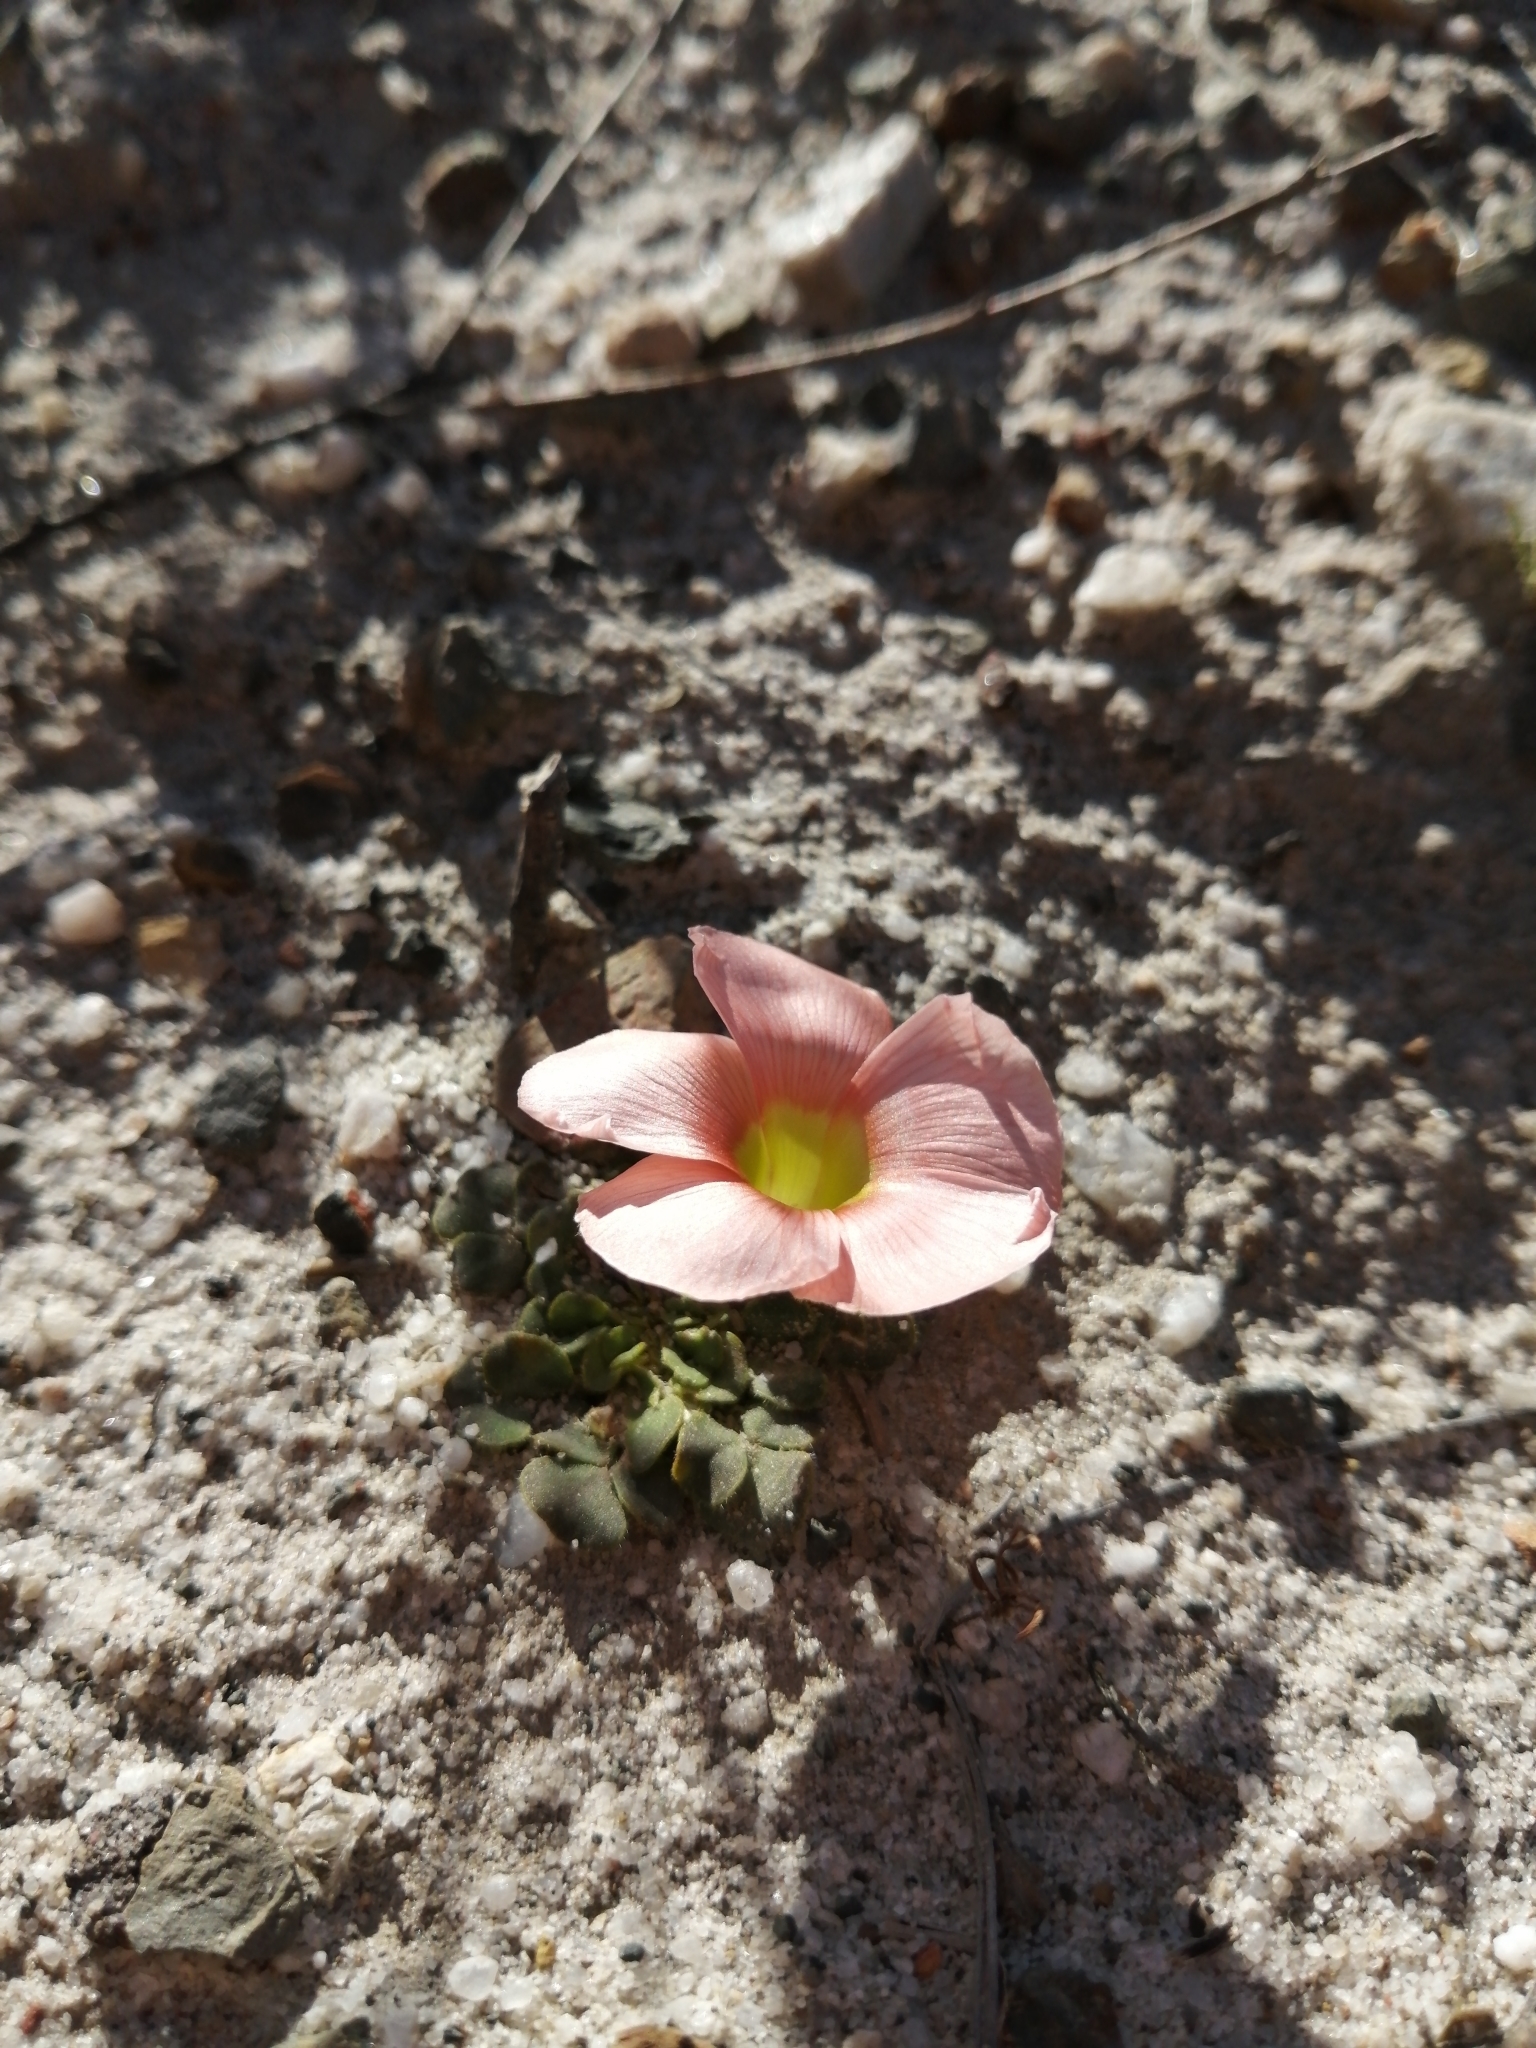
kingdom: Plantae
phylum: Tracheophyta
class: Magnoliopsida
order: Oxalidales
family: Oxalidaceae
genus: Oxalis
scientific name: Oxalis pulchella
